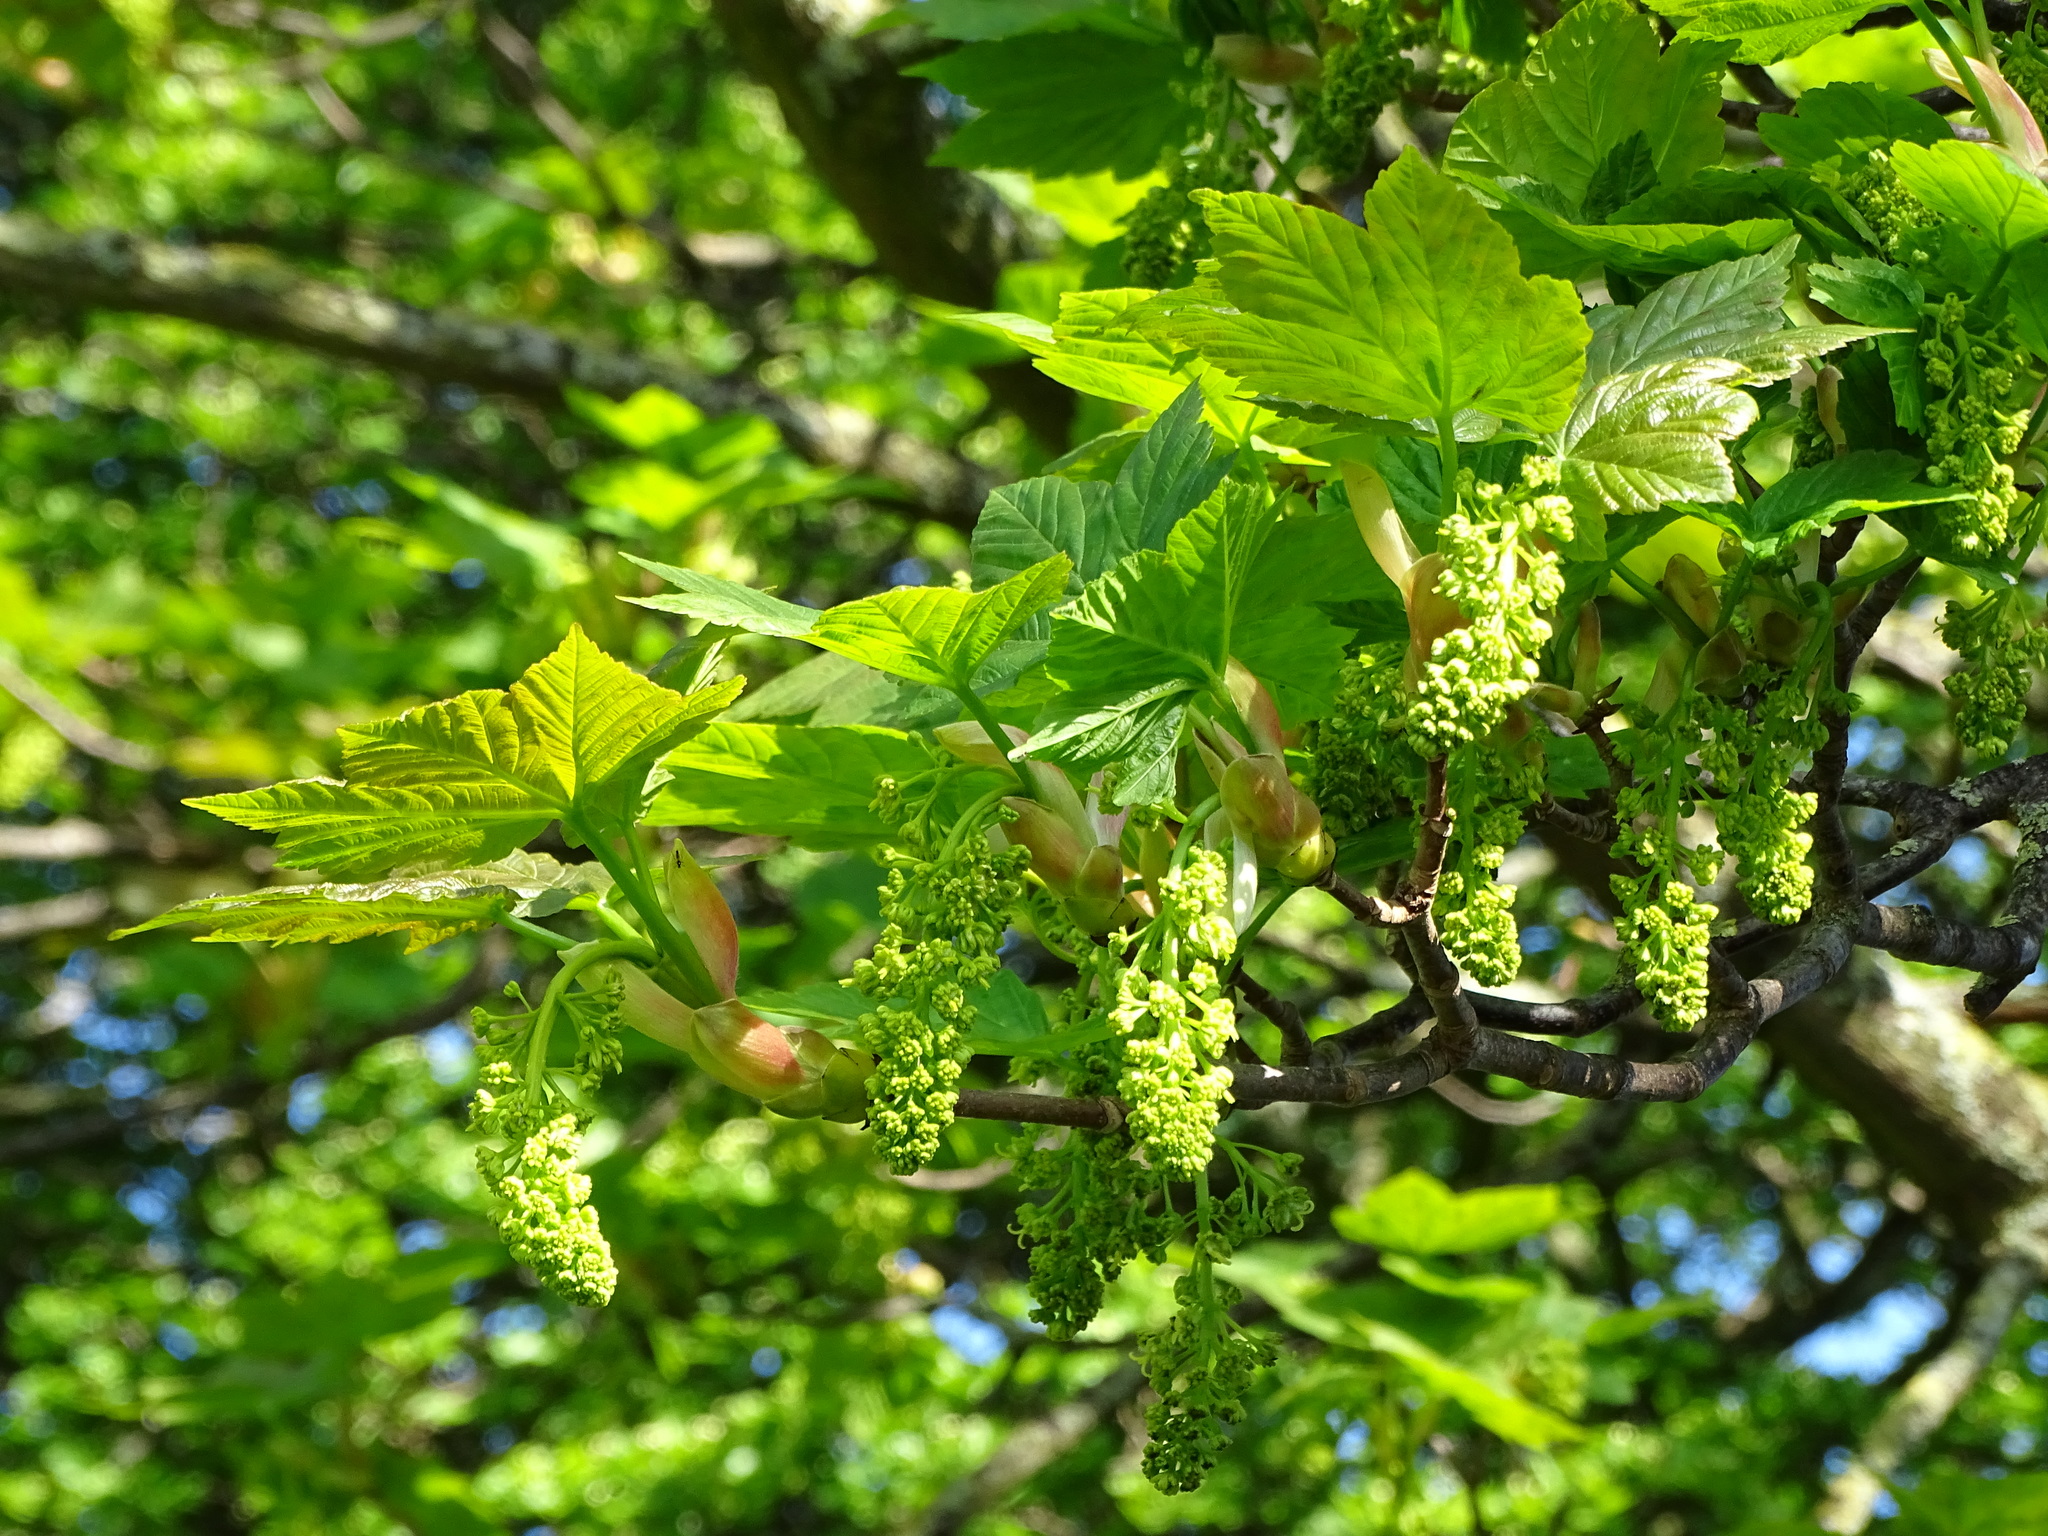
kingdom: Plantae
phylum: Tracheophyta
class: Magnoliopsida
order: Sapindales
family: Sapindaceae
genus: Acer
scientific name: Acer pseudoplatanus
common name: Sycamore
